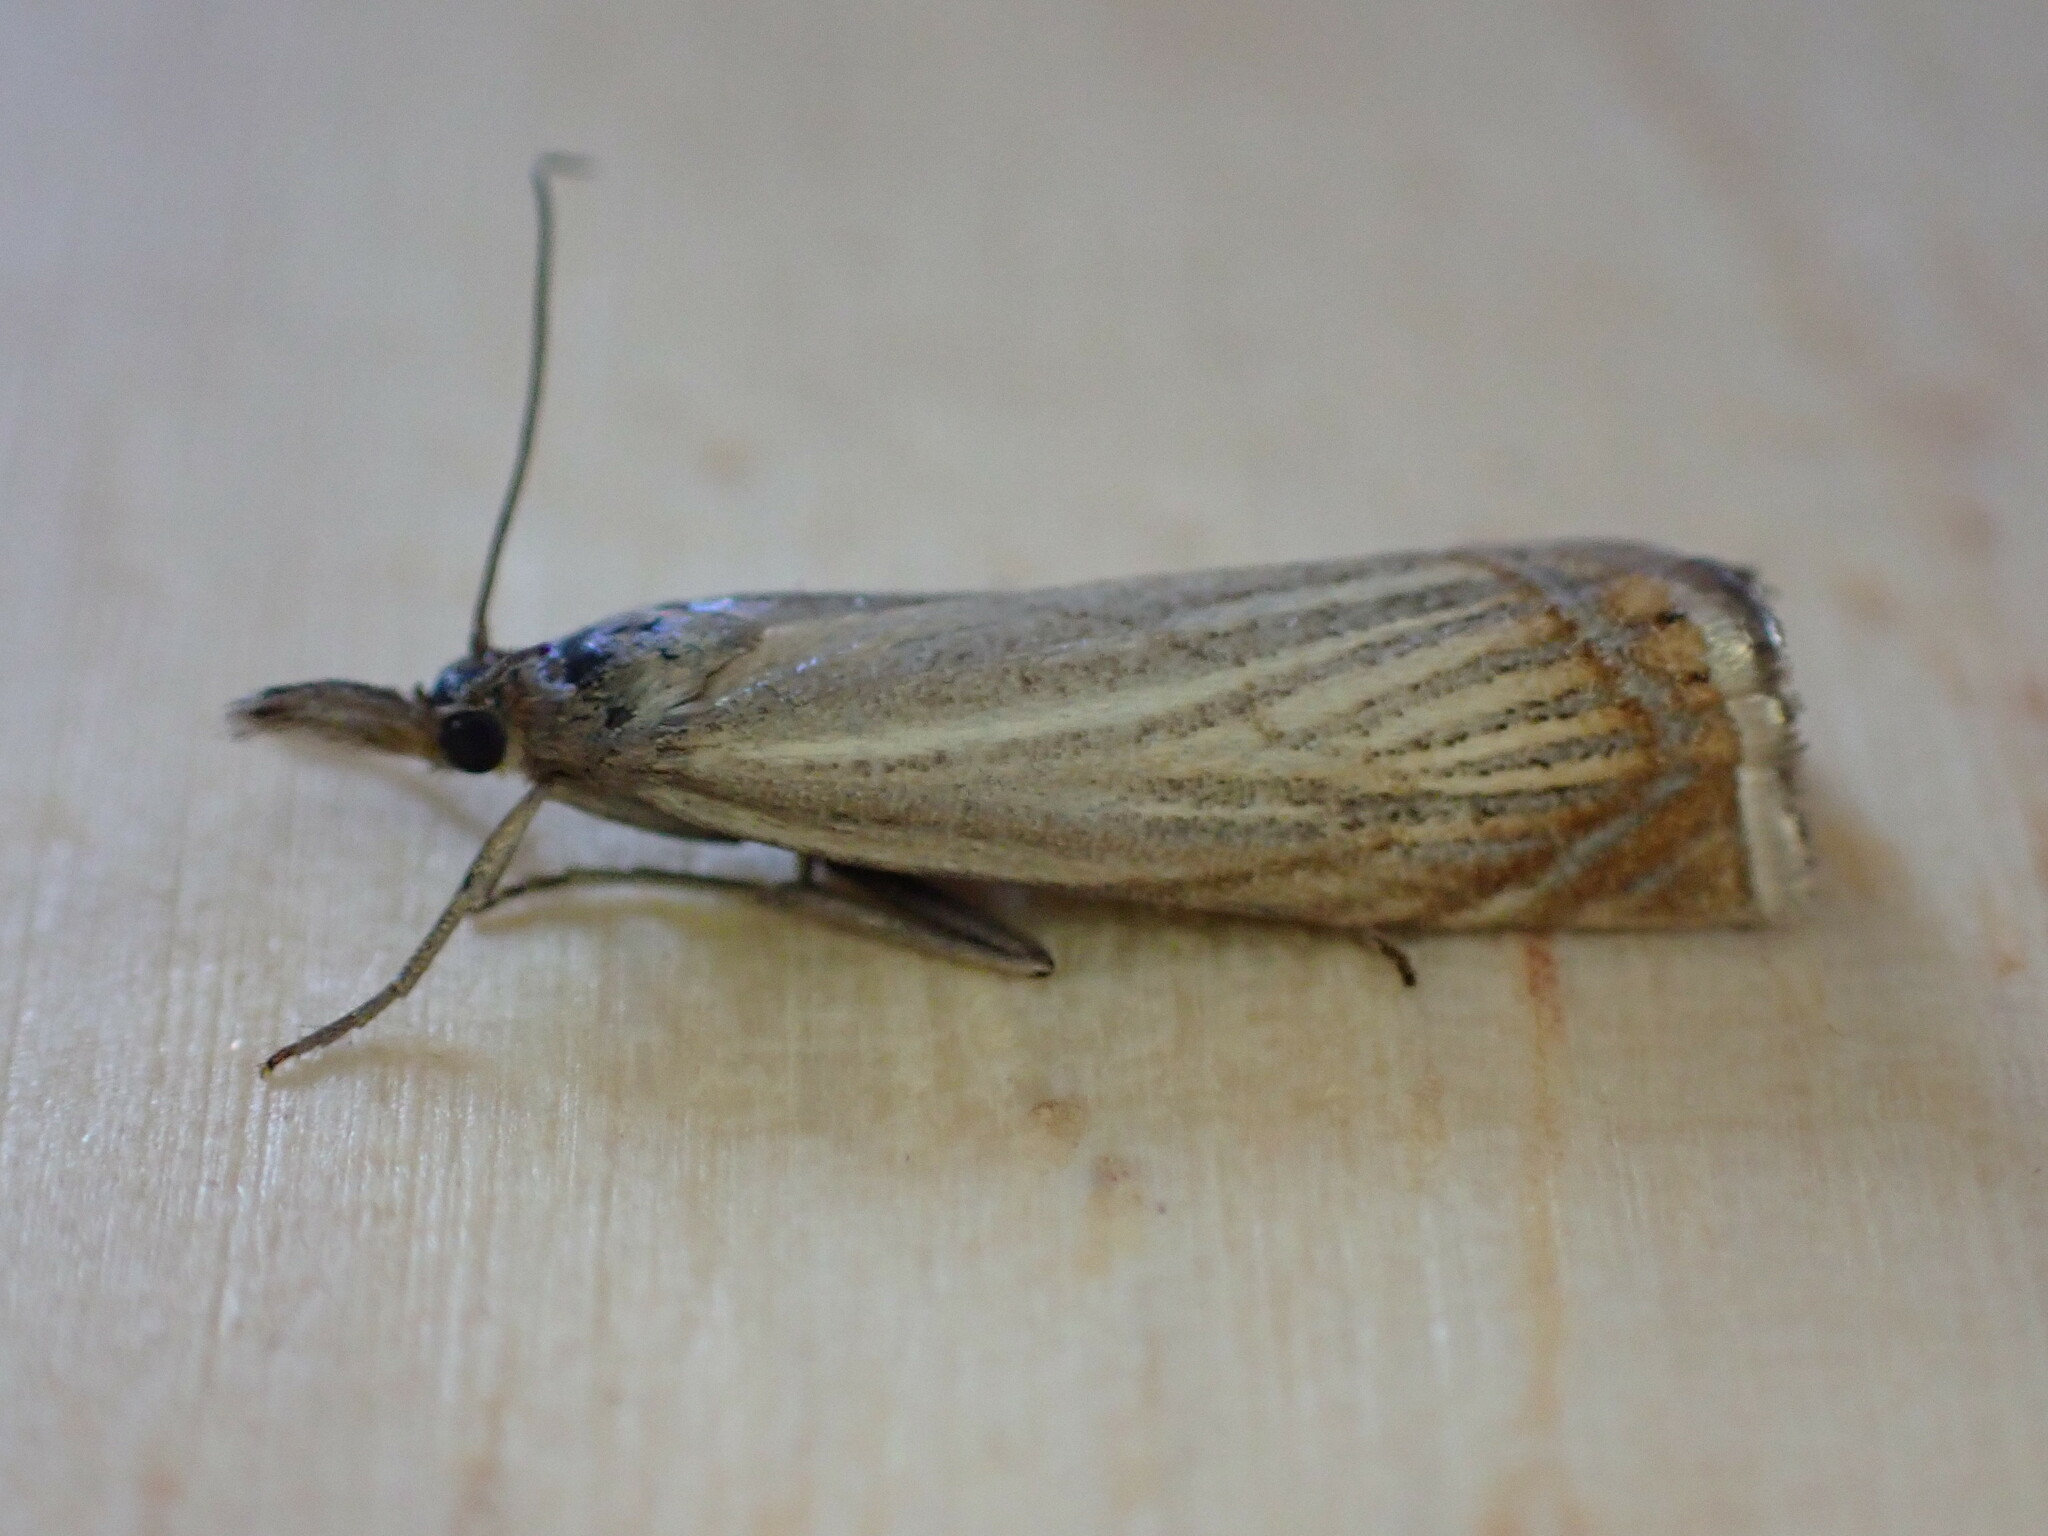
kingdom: Animalia
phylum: Arthropoda
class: Insecta
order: Lepidoptera
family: Crambidae
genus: Chrysoteuchia
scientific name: Chrysoteuchia culmella
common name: Garden grass-veneer
